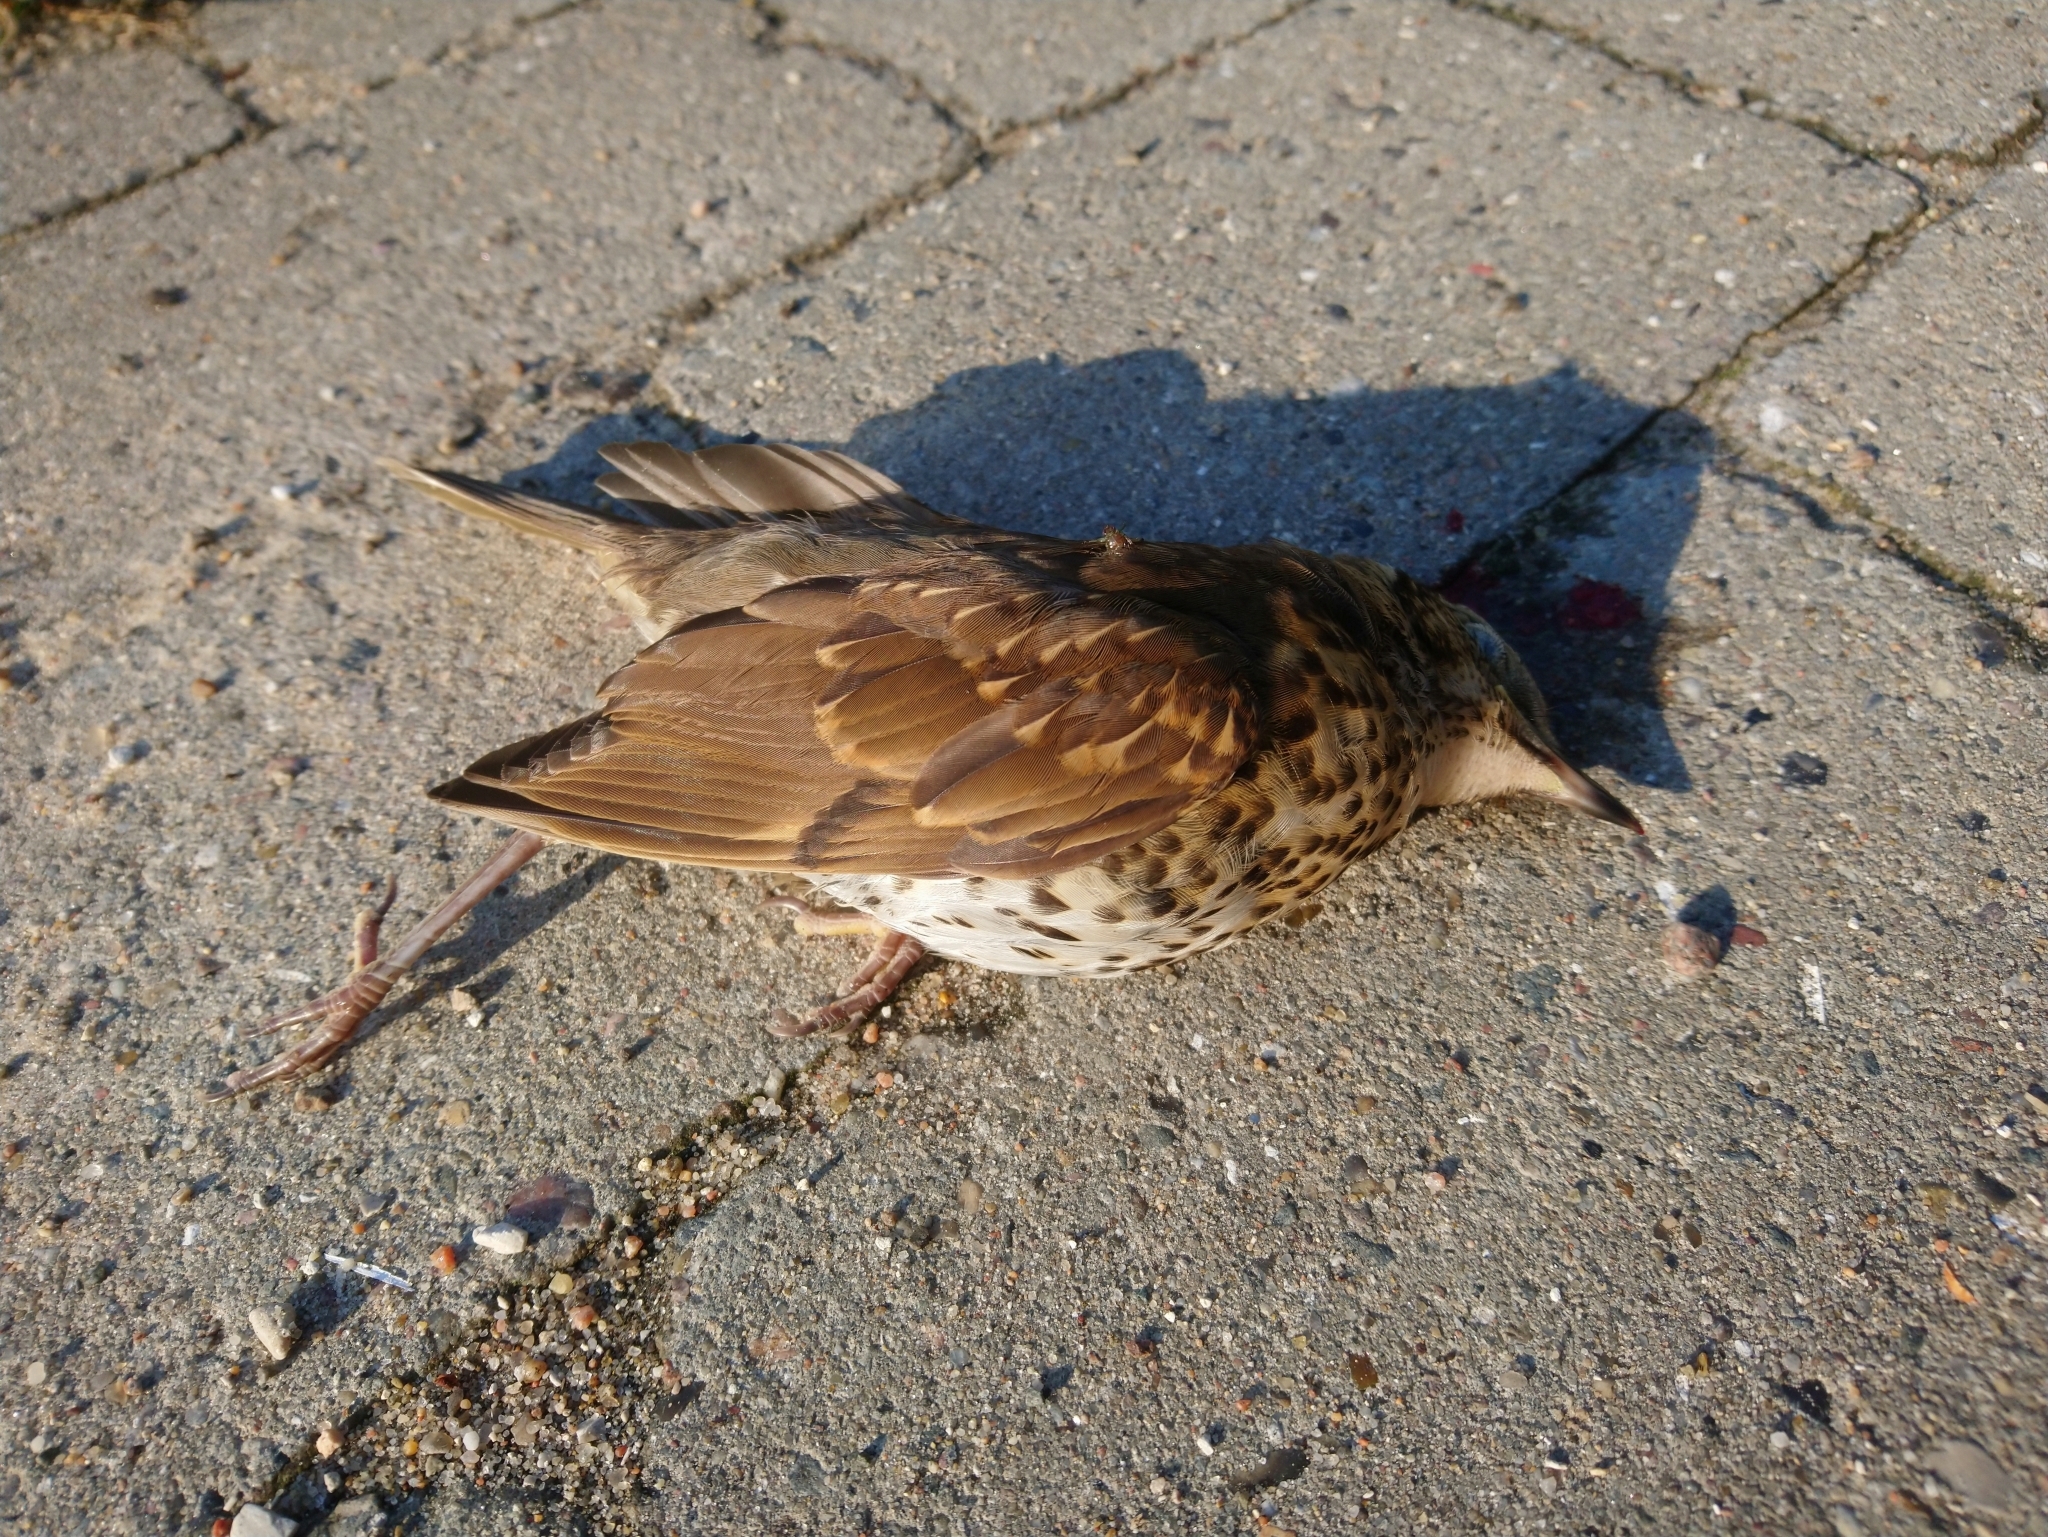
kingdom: Animalia
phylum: Chordata
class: Aves
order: Passeriformes
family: Turdidae
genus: Turdus
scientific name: Turdus philomelos
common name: Song thrush
